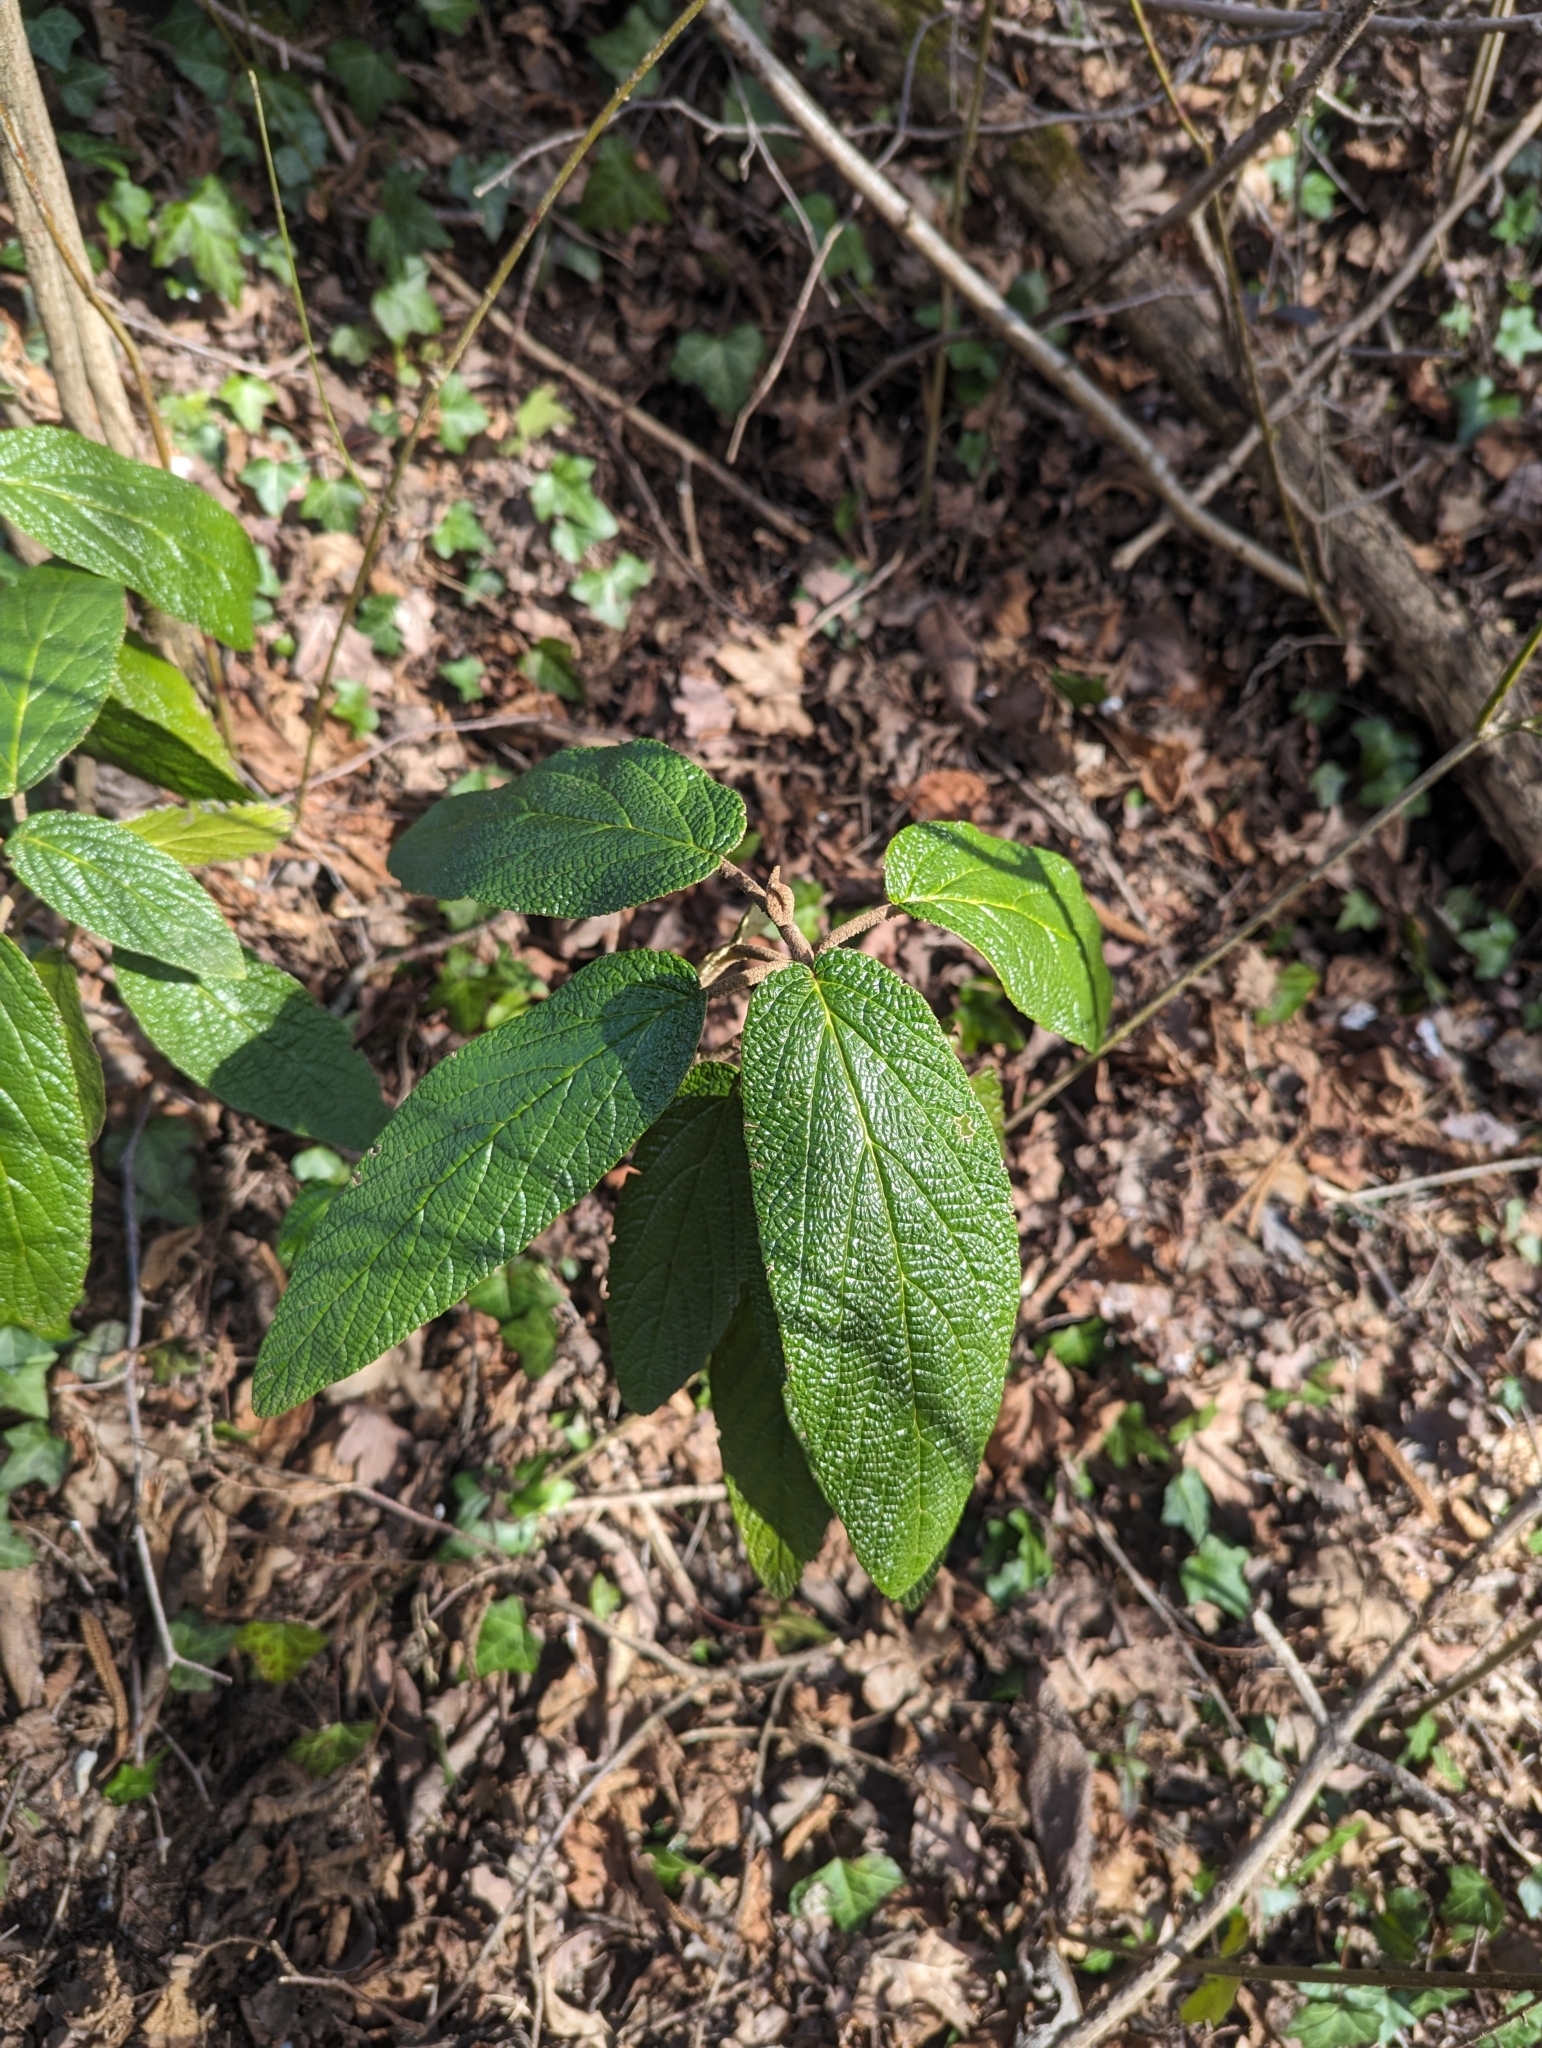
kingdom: Plantae
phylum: Tracheophyta
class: Magnoliopsida
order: Dipsacales
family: Viburnaceae
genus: Viburnum
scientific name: Viburnum rhytidophyllum
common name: Wrinkled viburnum
